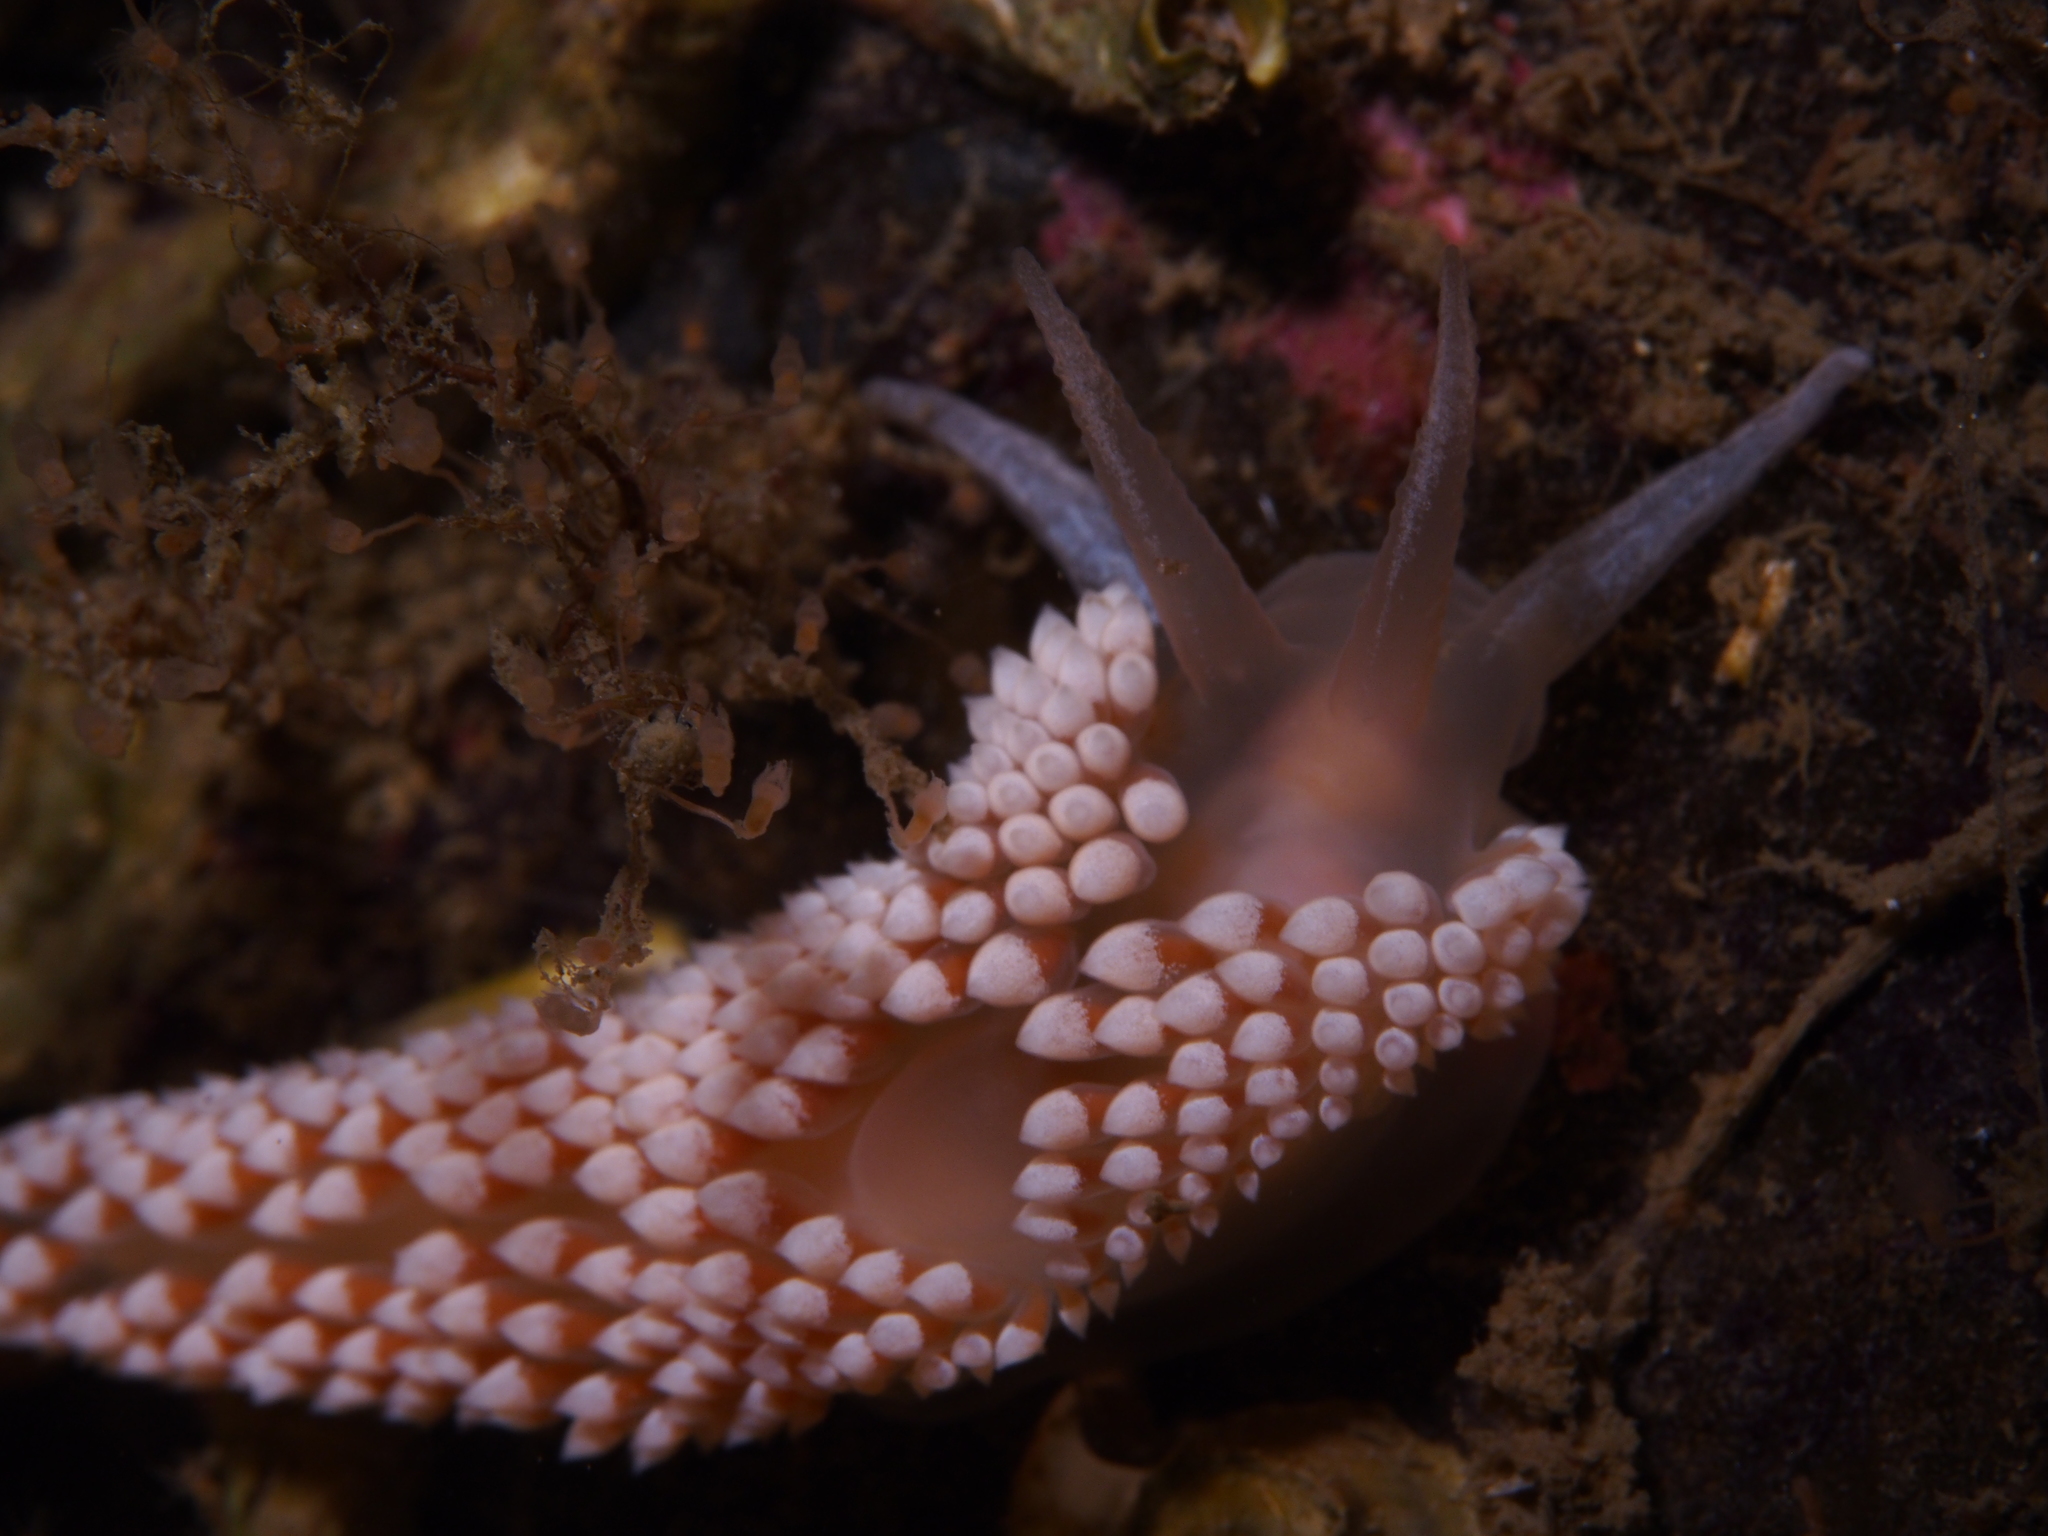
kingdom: Animalia
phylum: Mollusca
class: Gastropoda
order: Nudibranchia
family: Coryphellidae
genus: Coryphella
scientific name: Coryphella verrucosa
